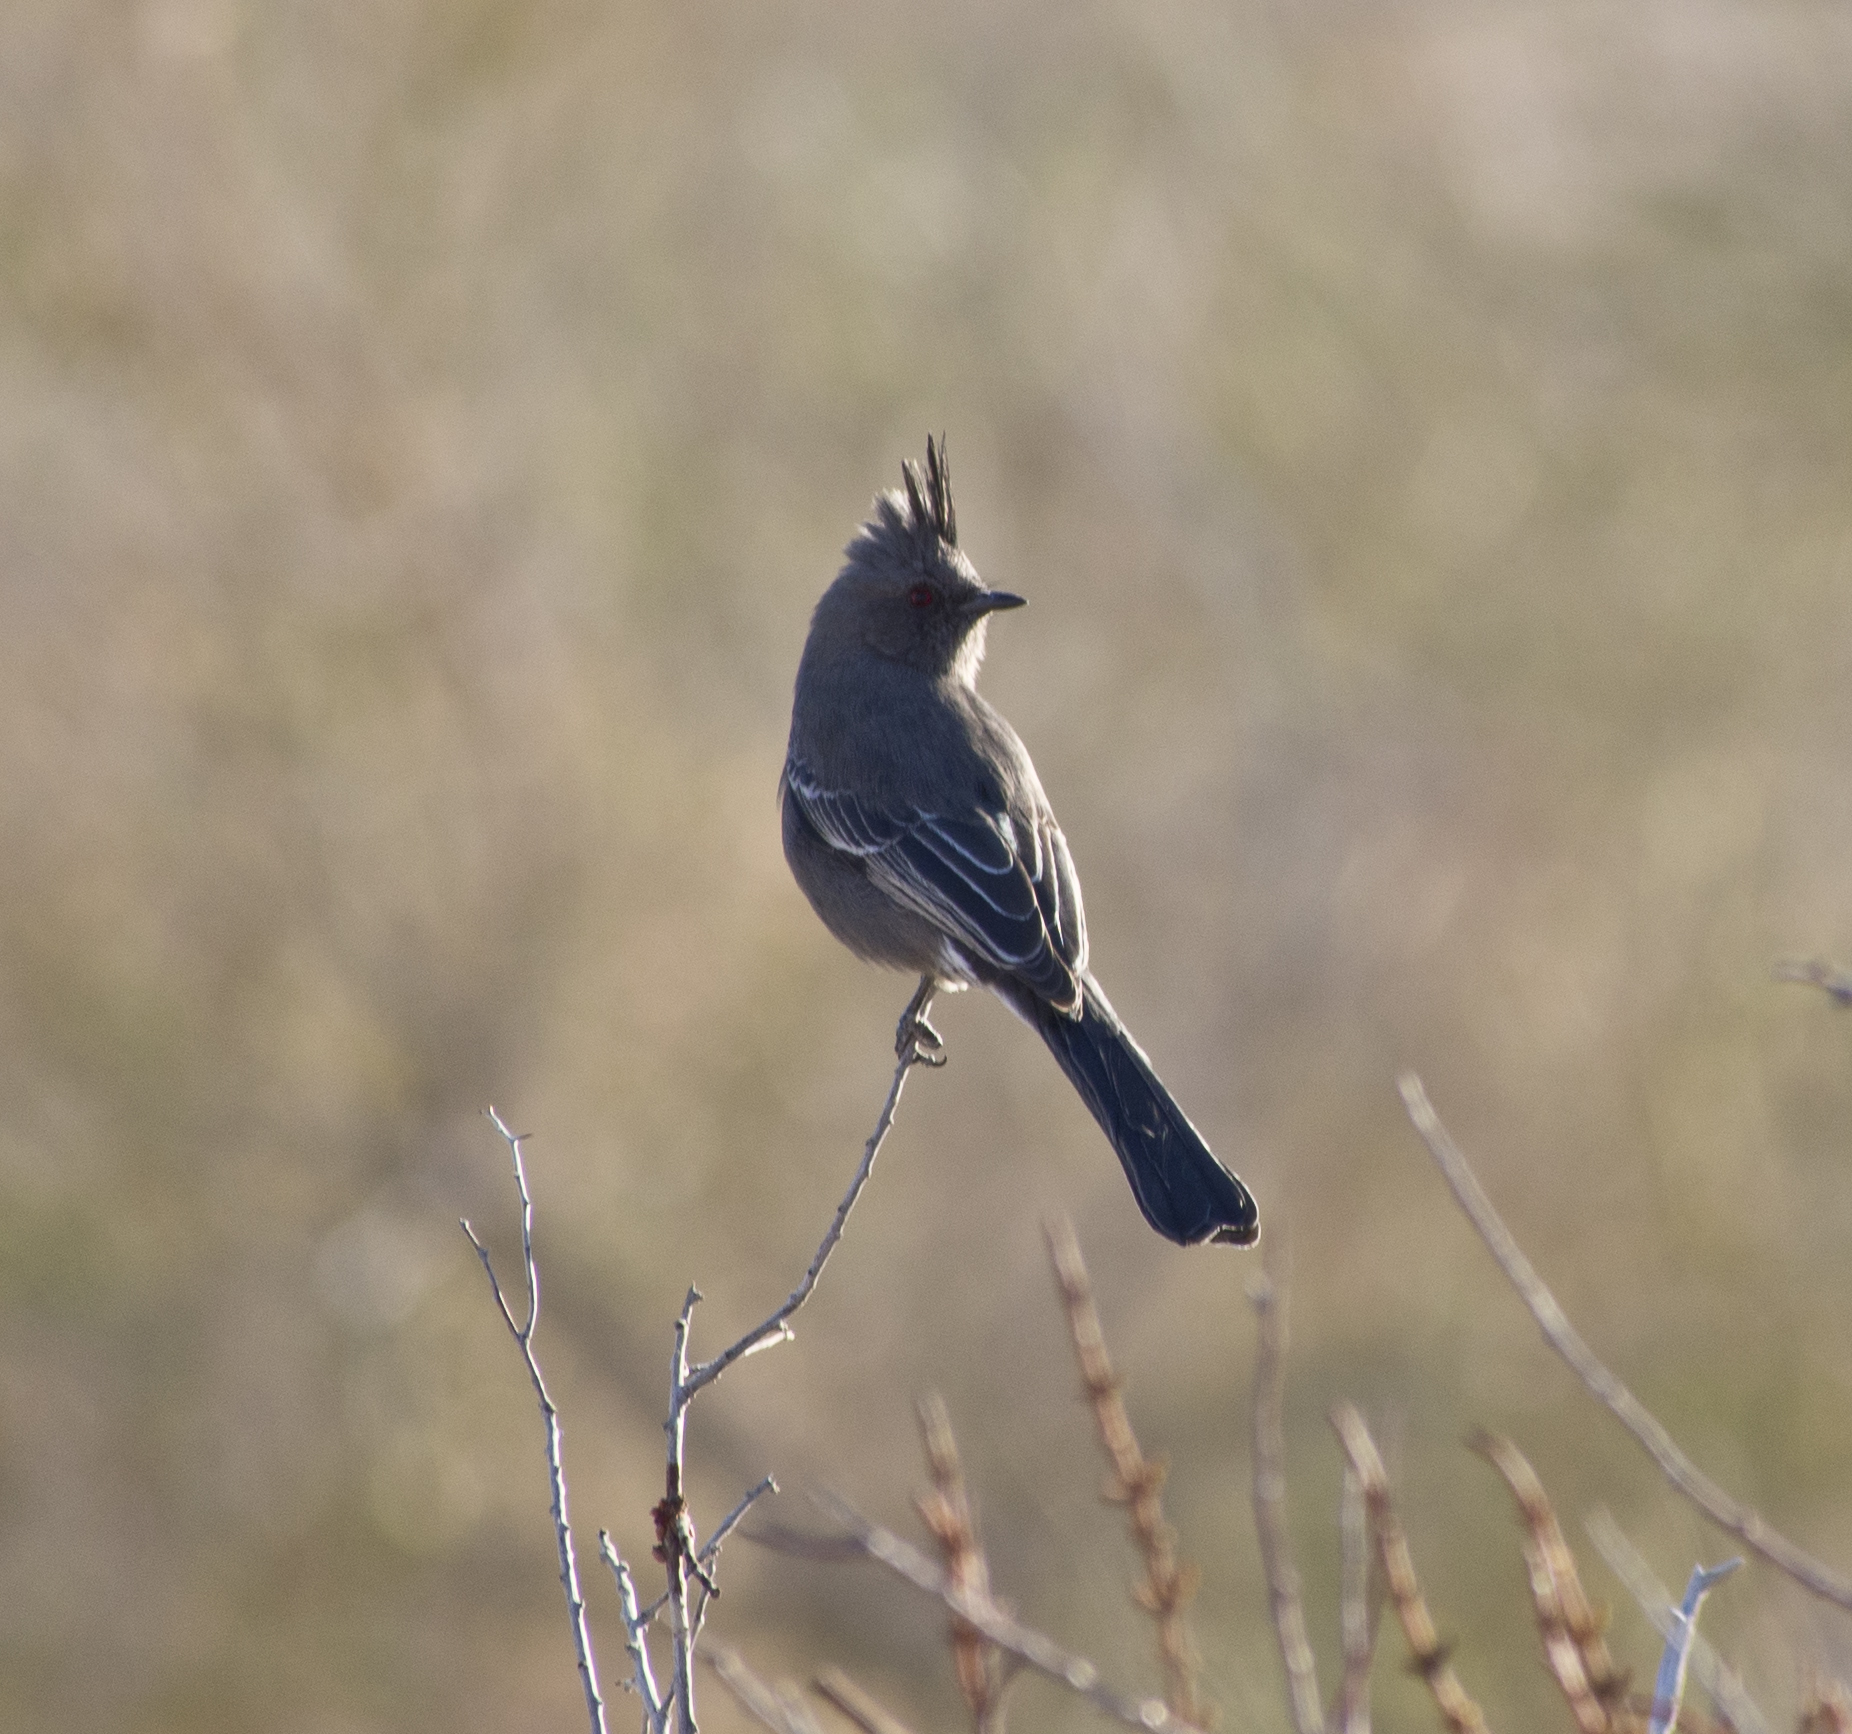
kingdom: Animalia
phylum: Chordata
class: Aves
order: Passeriformes
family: Ptilogonatidae
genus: Phainopepla
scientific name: Phainopepla nitens
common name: Phainopepla
